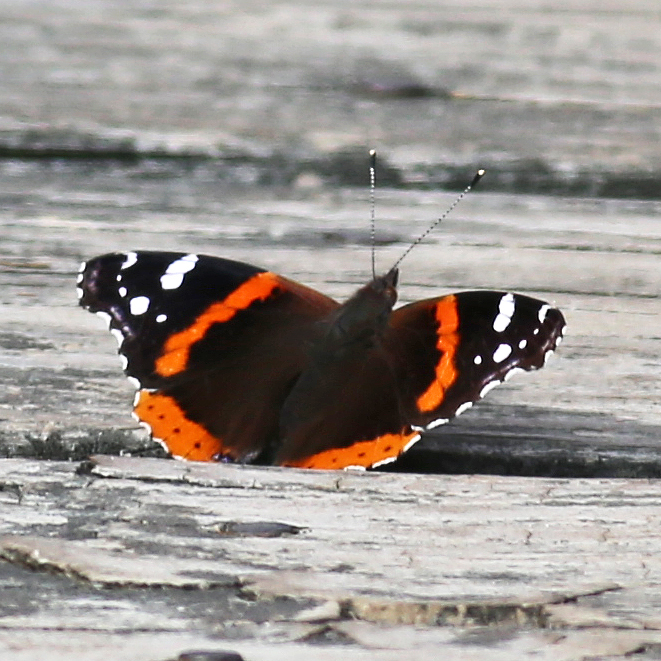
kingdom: Animalia
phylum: Arthropoda
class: Insecta
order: Lepidoptera
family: Nymphalidae
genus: Vanessa
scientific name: Vanessa atalanta
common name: Red admiral
